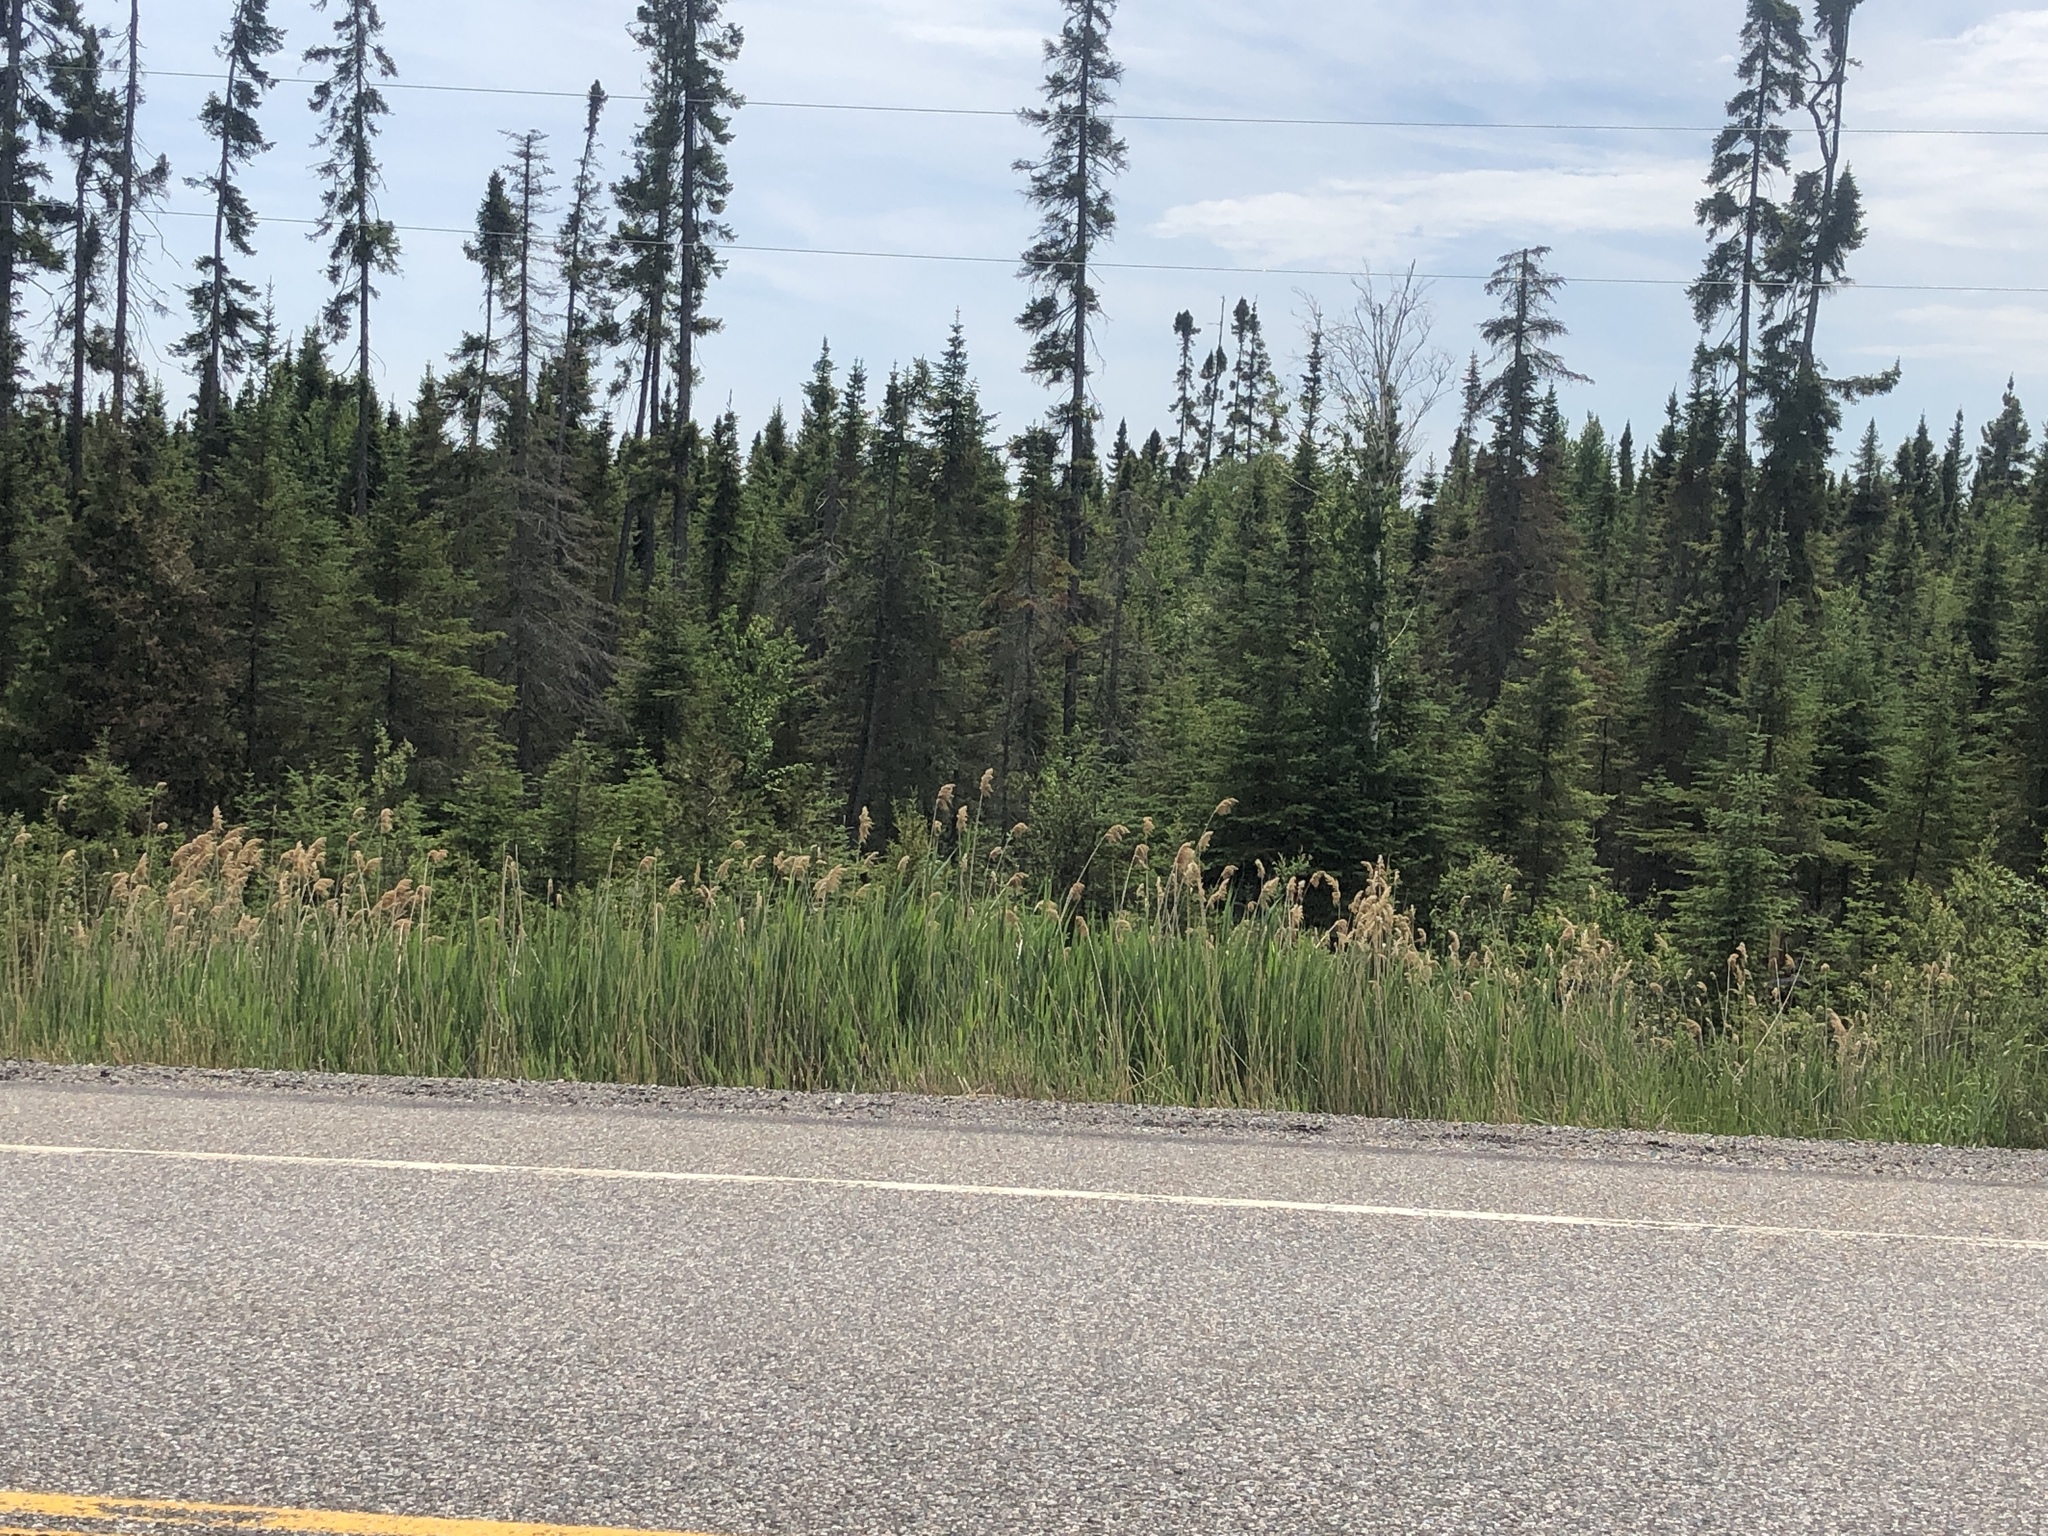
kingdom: Plantae
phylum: Tracheophyta
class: Liliopsida
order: Poales
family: Poaceae
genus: Phragmites
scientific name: Phragmites australis
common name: Common reed
